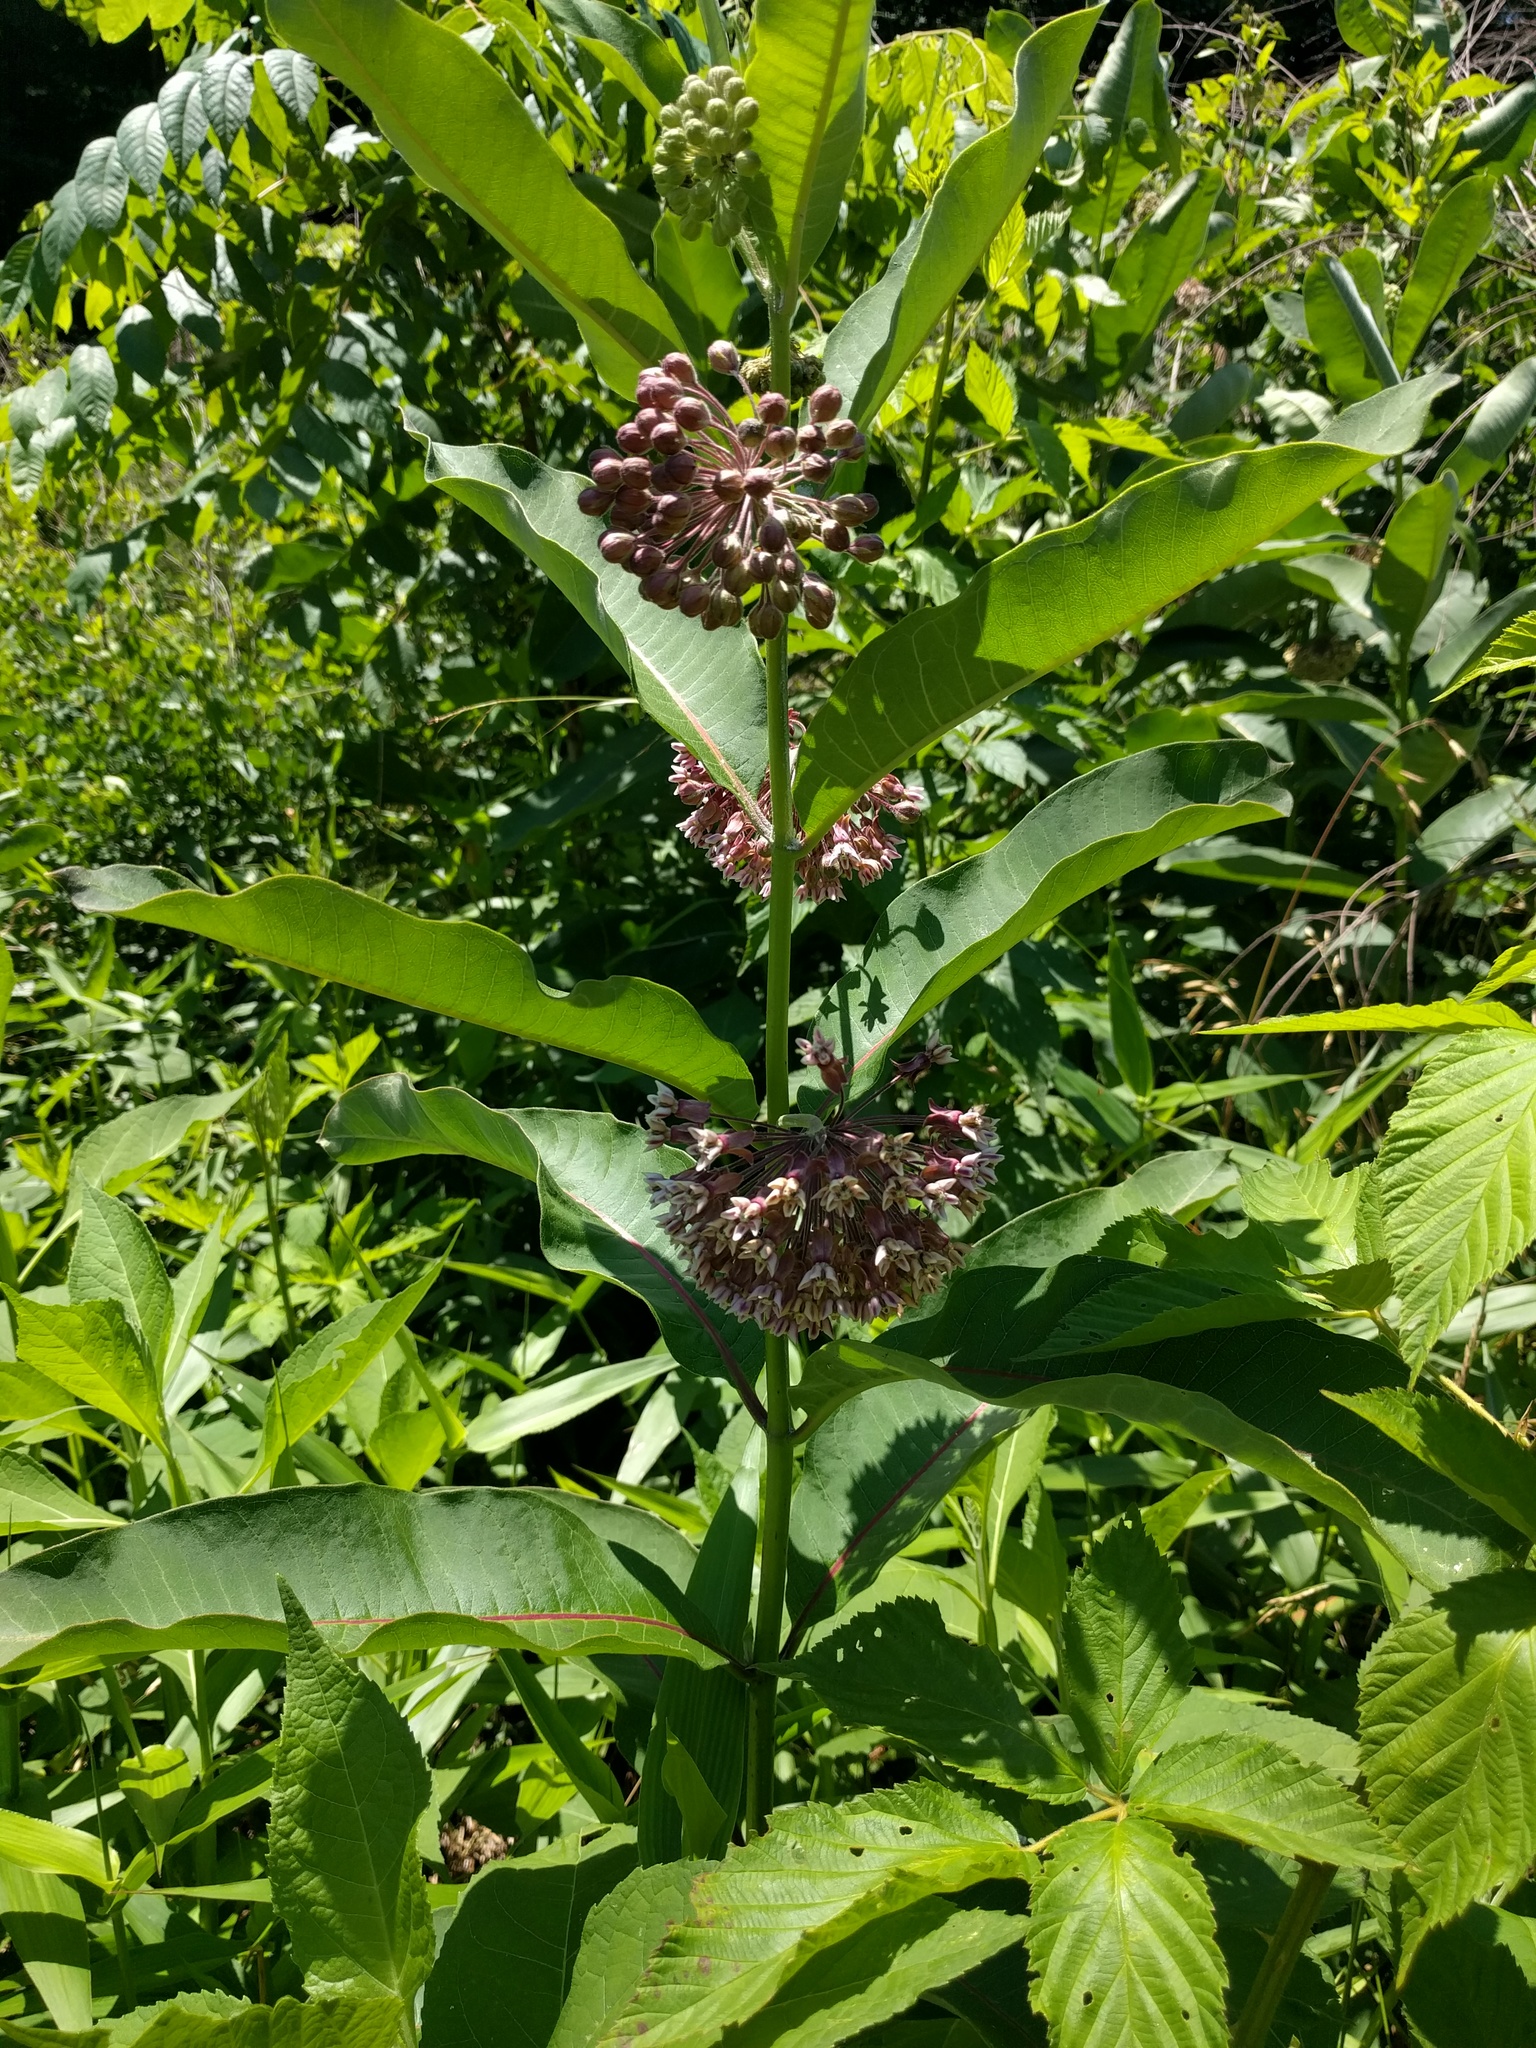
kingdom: Plantae
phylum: Tracheophyta
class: Magnoliopsida
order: Gentianales
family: Apocynaceae
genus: Asclepias
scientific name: Asclepias syriaca
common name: Common milkweed
